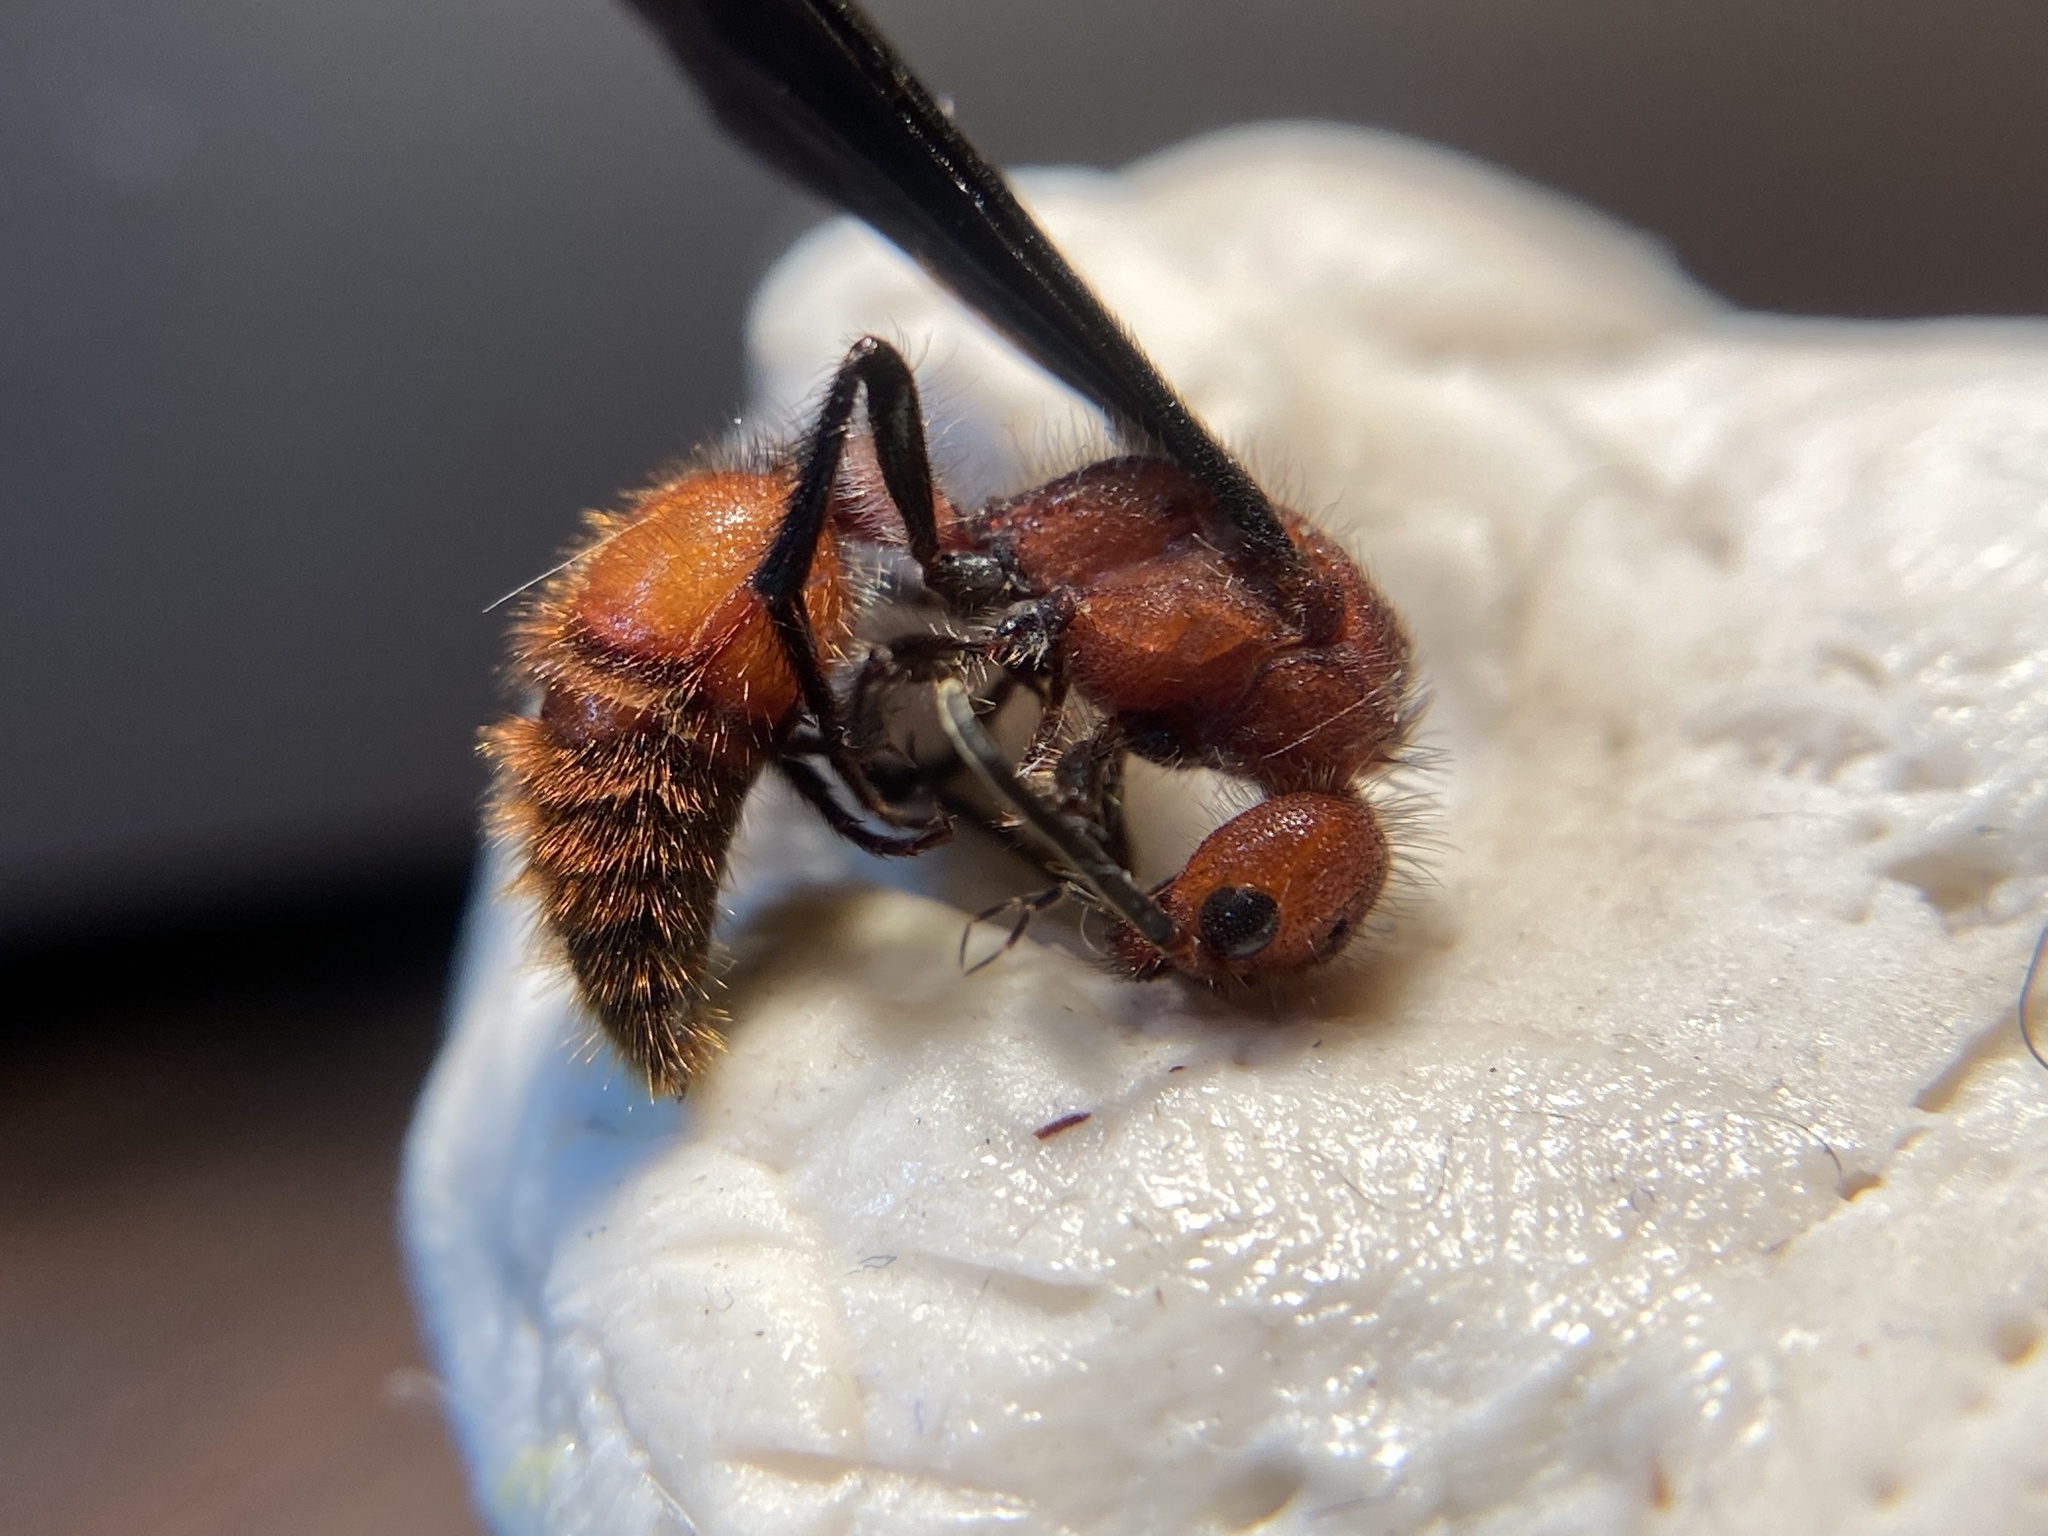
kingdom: Animalia
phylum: Arthropoda
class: Insecta
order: Hymenoptera
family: Mutillidae
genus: Sphaeropthalma
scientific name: Sphaeropthalma
